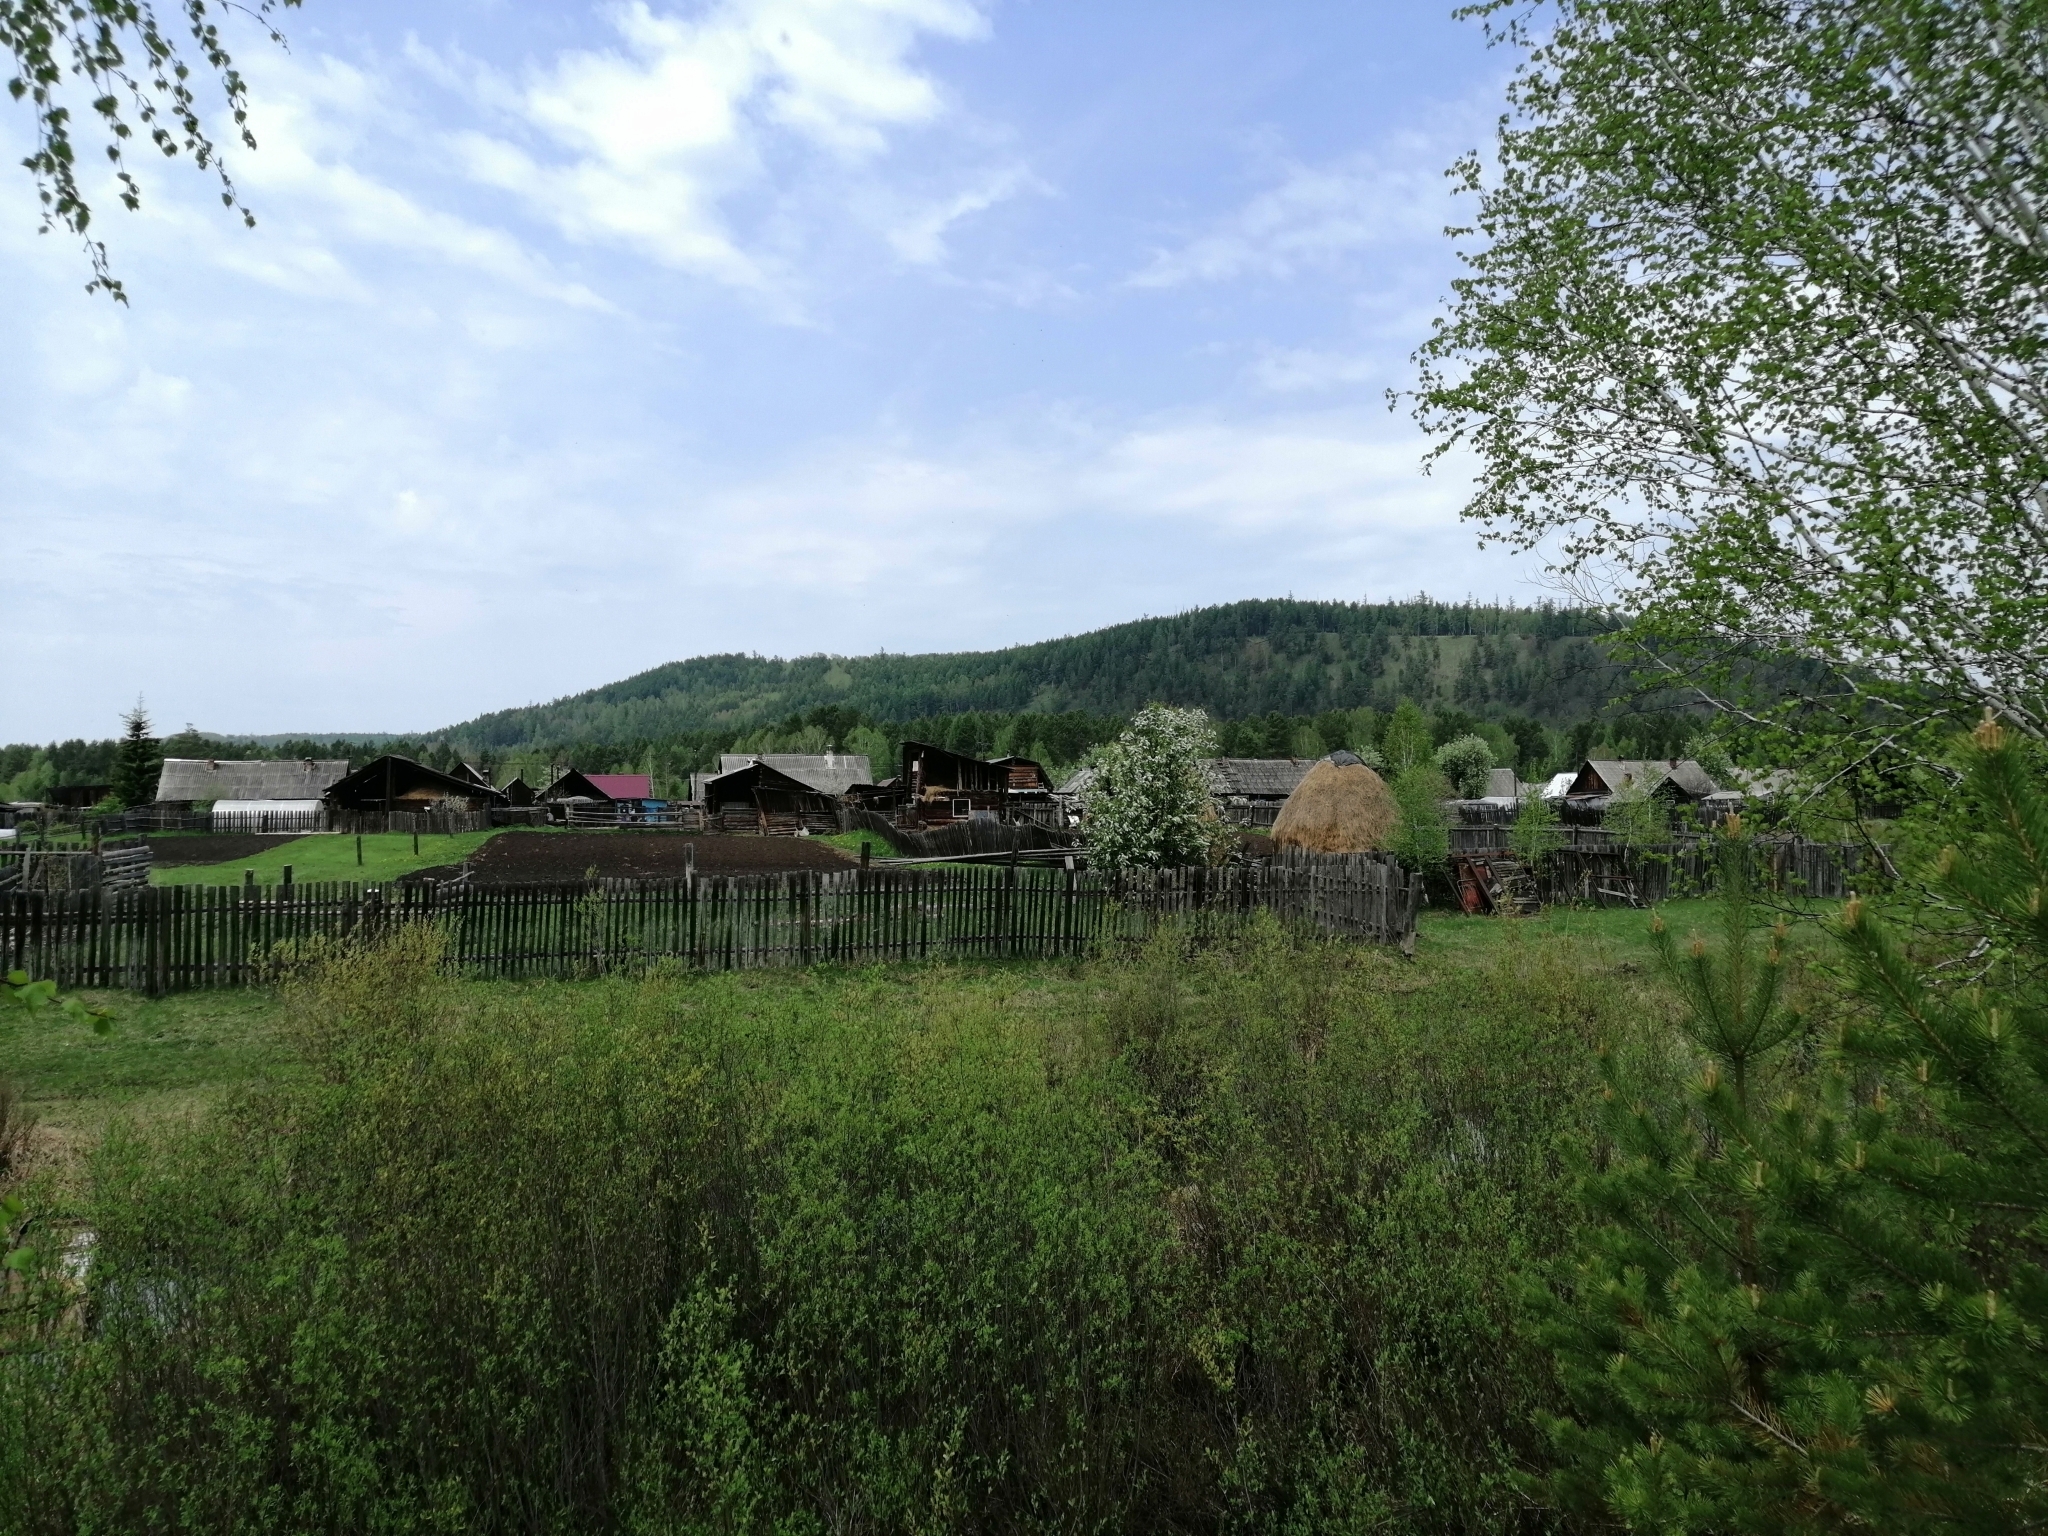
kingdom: Plantae
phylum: Tracheophyta
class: Magnoliopsida
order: Rosales
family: Rosaceae
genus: Prunus
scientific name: Prunus padus
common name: Bird cherry
